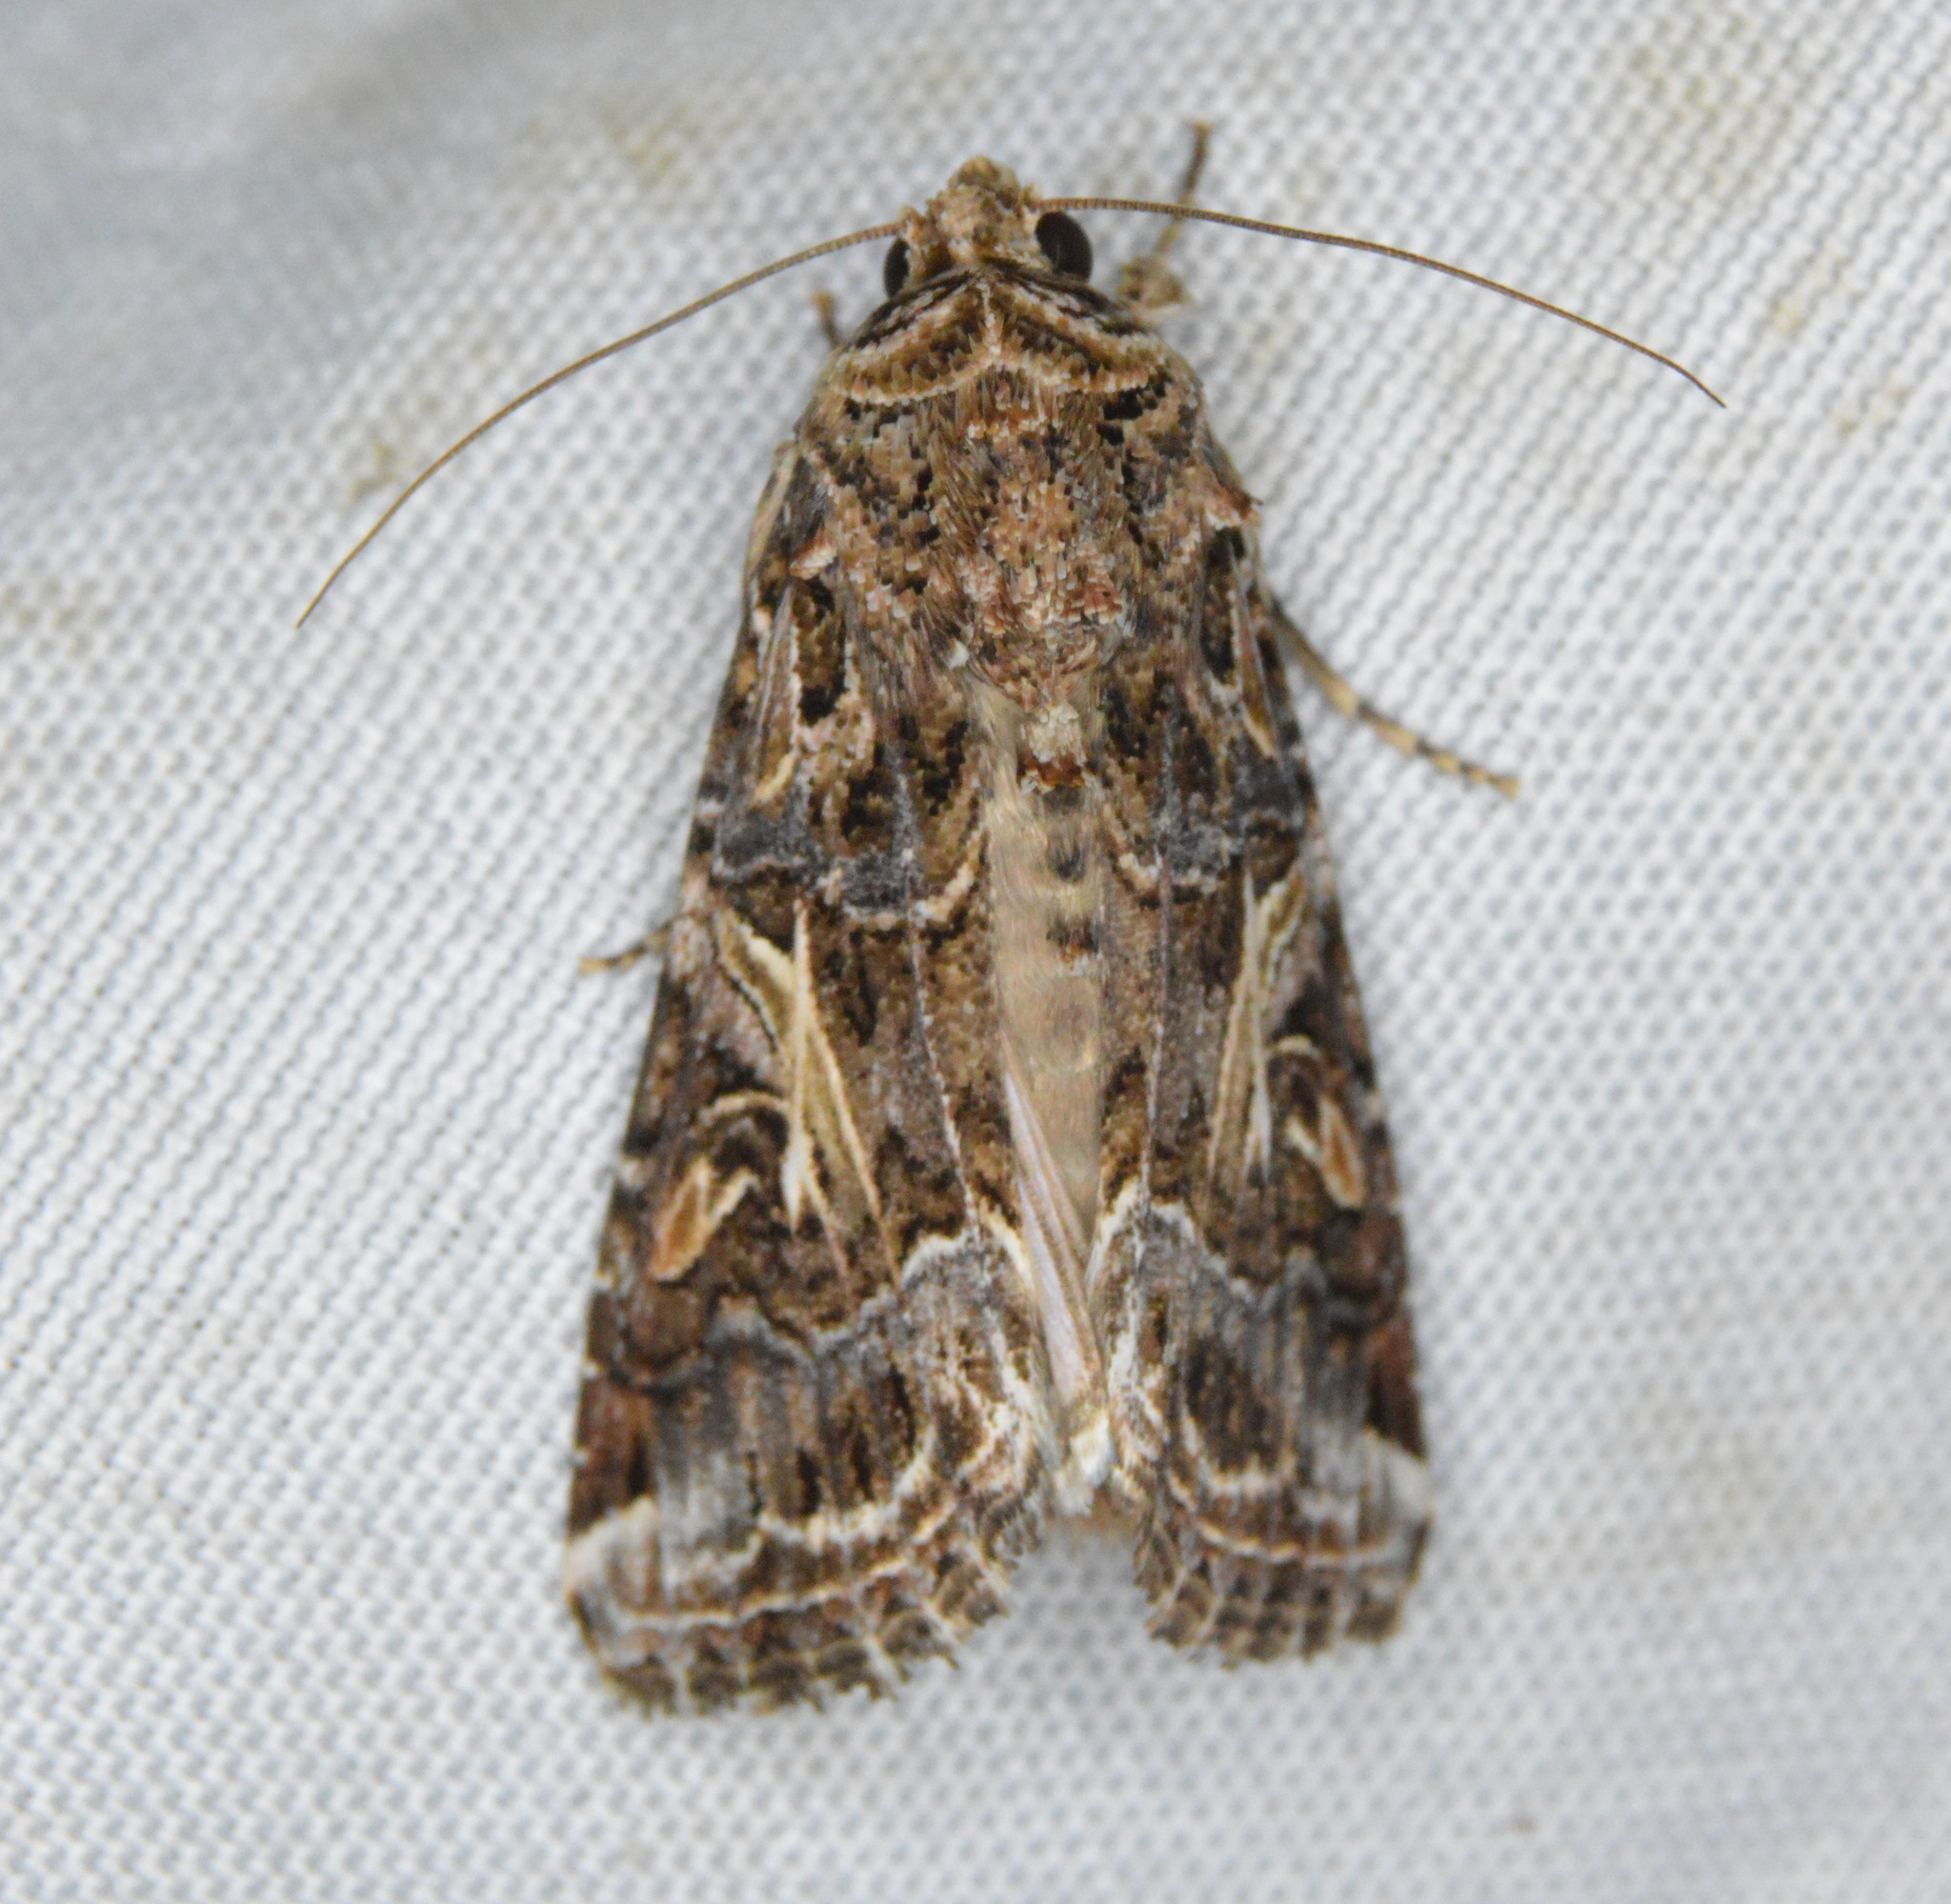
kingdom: Animalia
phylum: Arthropoda
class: Insecta
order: Lepidoptera
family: Noctuidae
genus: Spodoptera
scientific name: Spodoptera ornithogalli
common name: Yellow-striped armyworm
